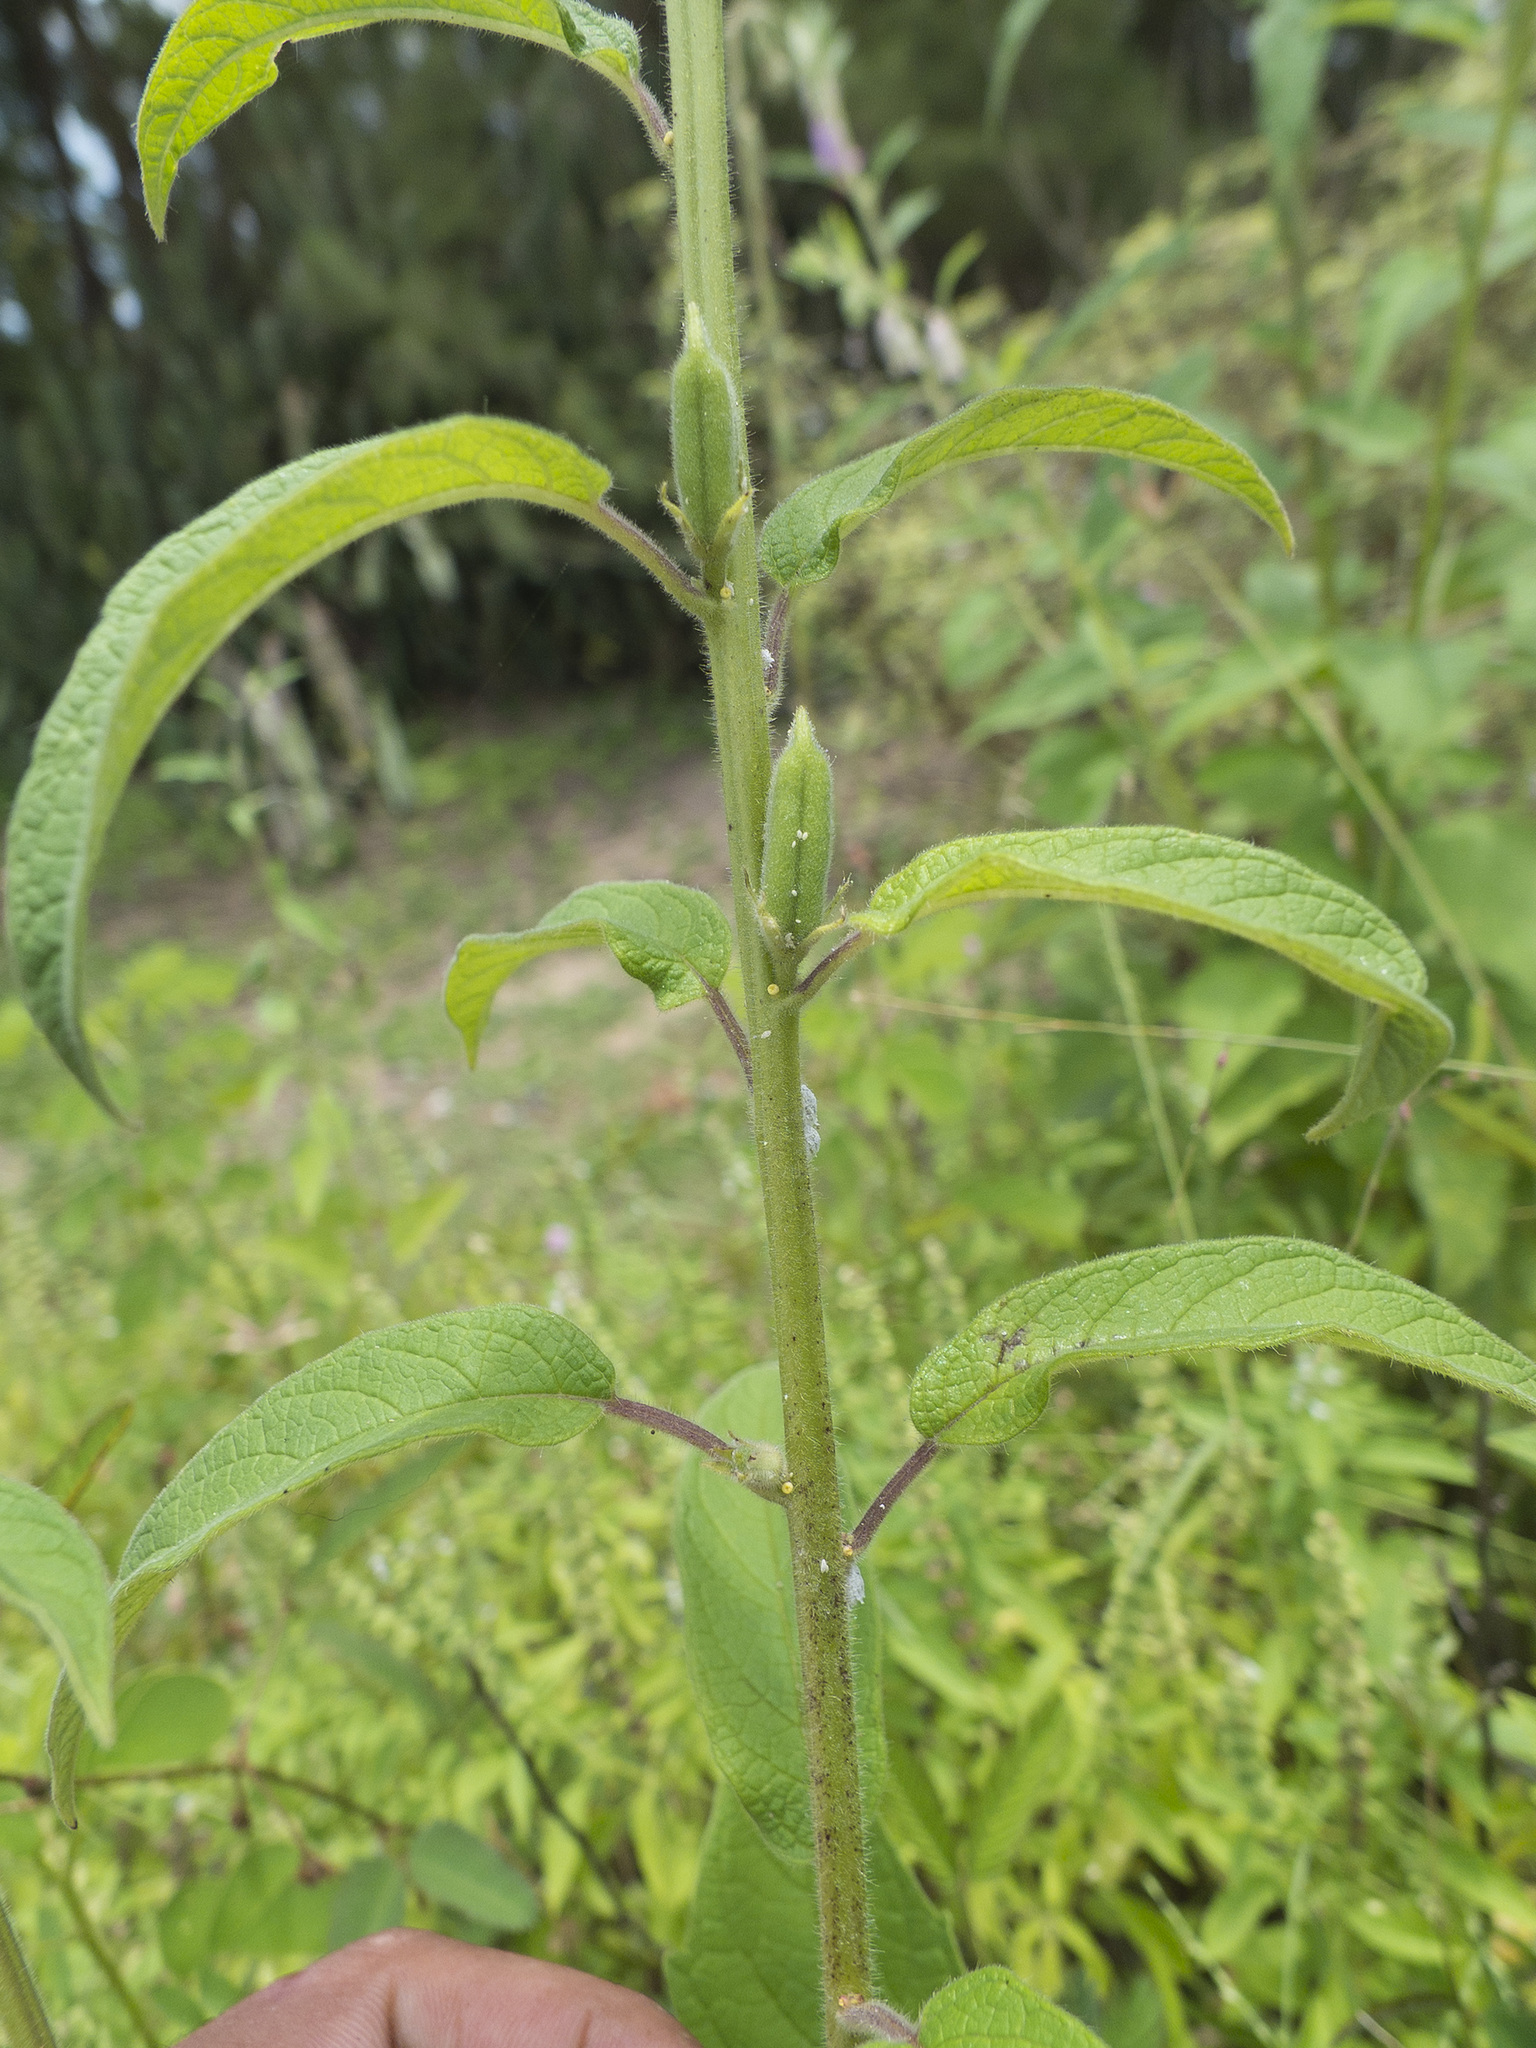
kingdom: Plantae
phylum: Tracheophyta
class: Magnoliopsida
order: Lamiales
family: Pedaliaceae
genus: Sesamum
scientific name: Sesamum indicum
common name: Sesame
